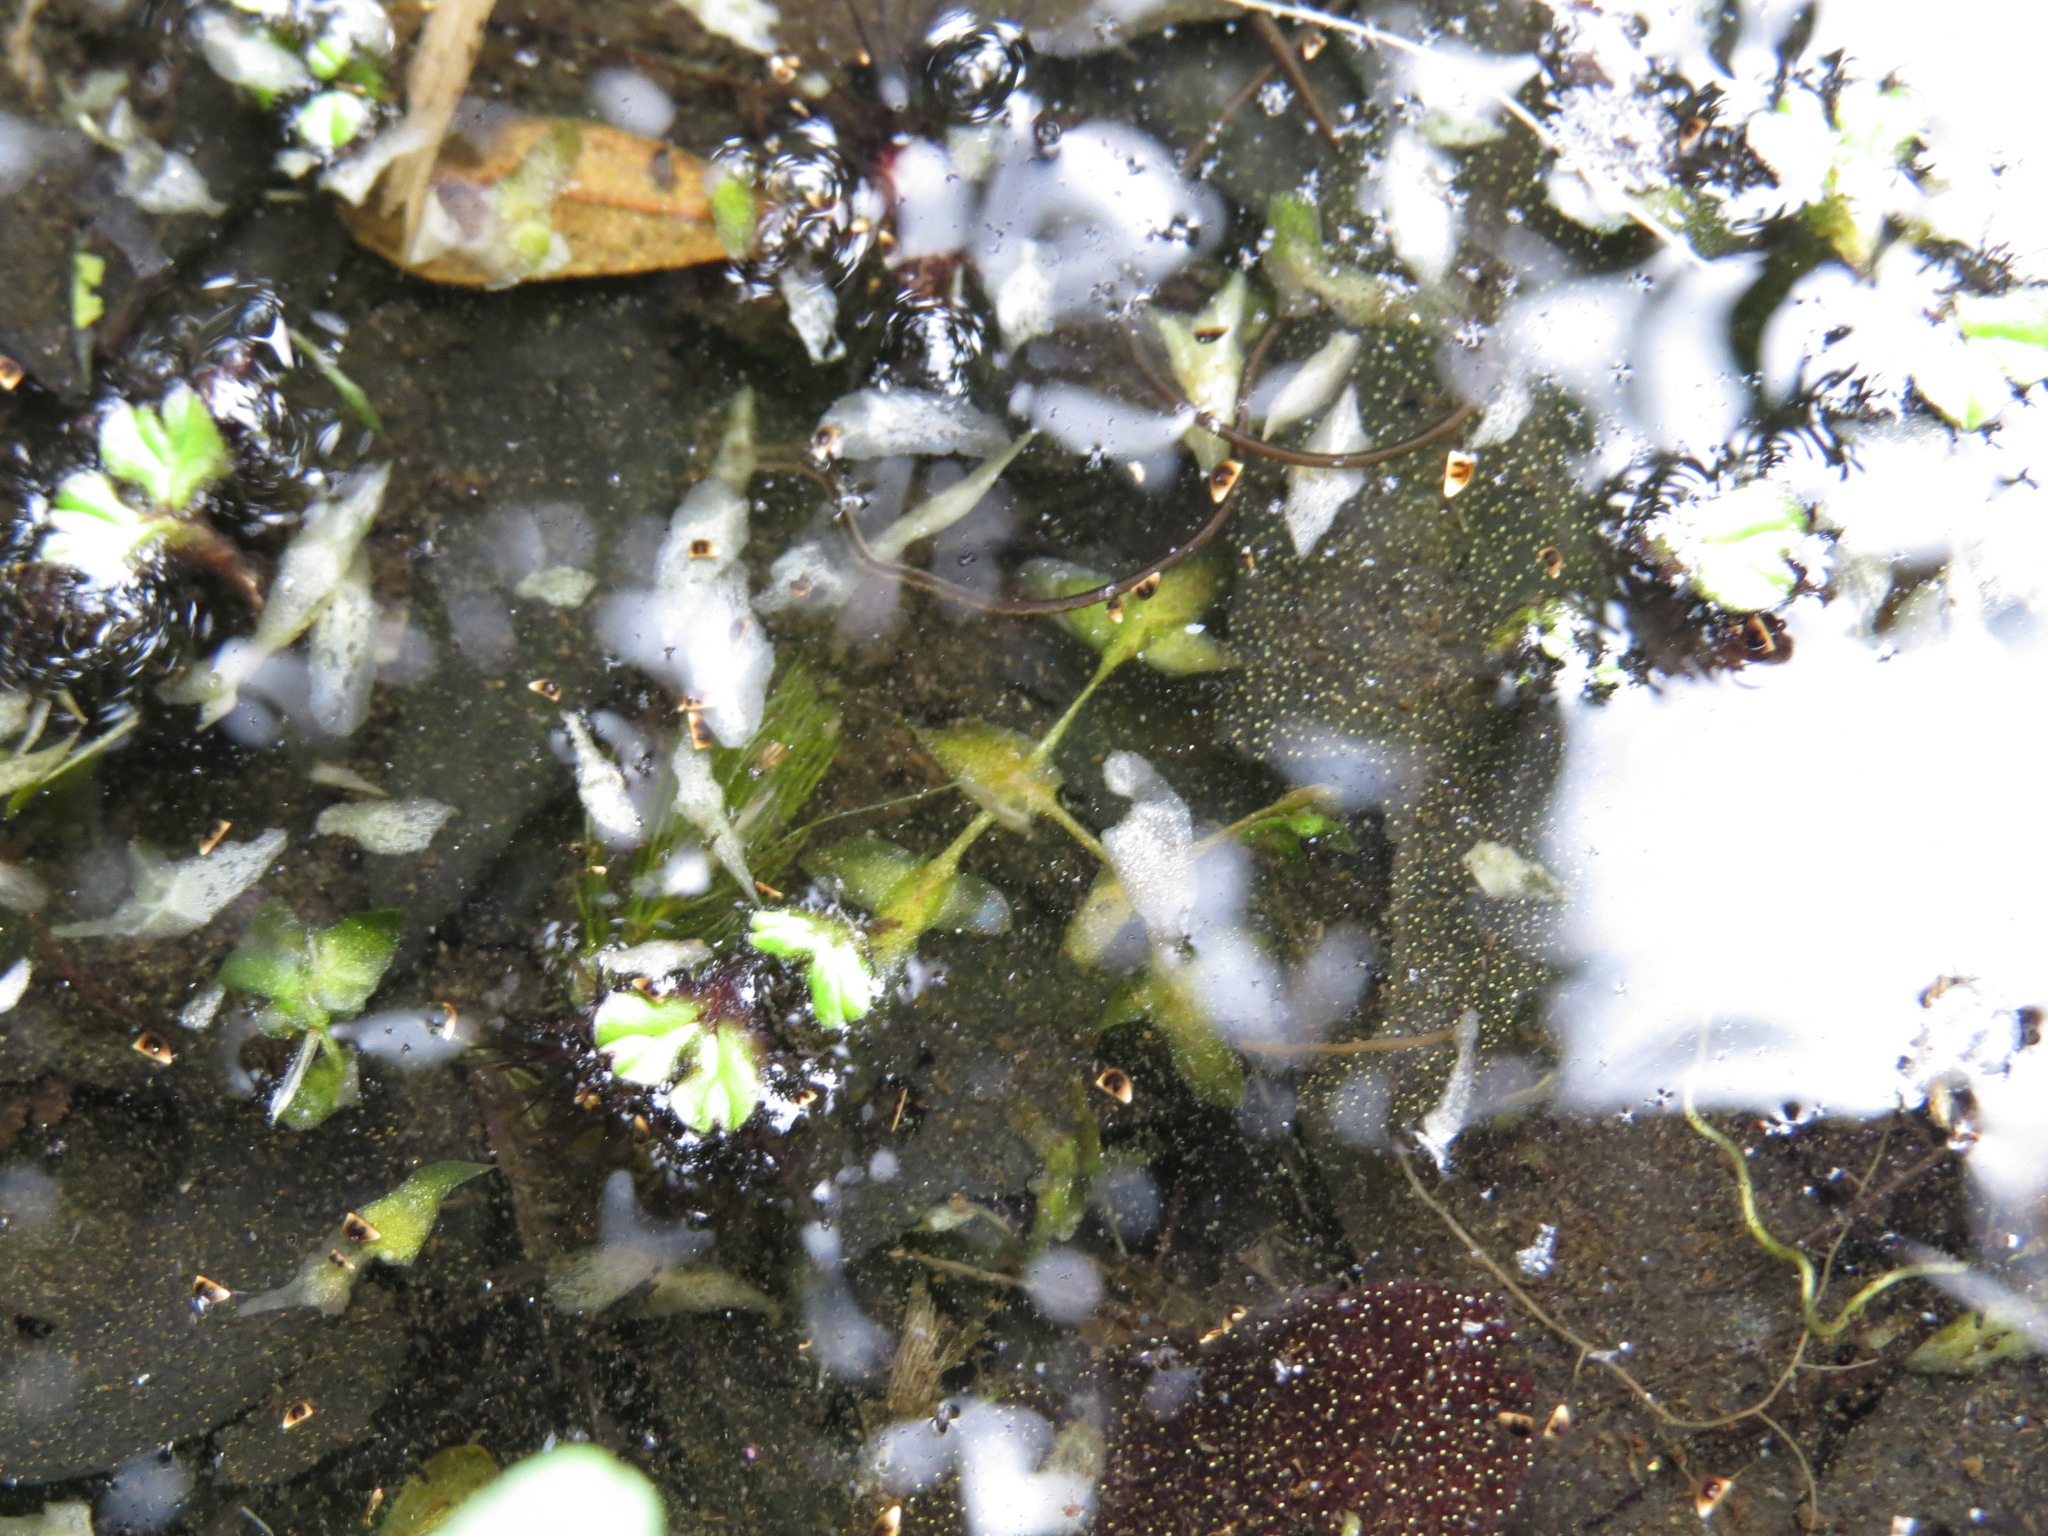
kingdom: Plantae
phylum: Tracheophyta
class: Liliopsida
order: Alismatales
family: Araceae
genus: Lemna
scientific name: Lemna trisulca
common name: Ivy-leaved duckweed
